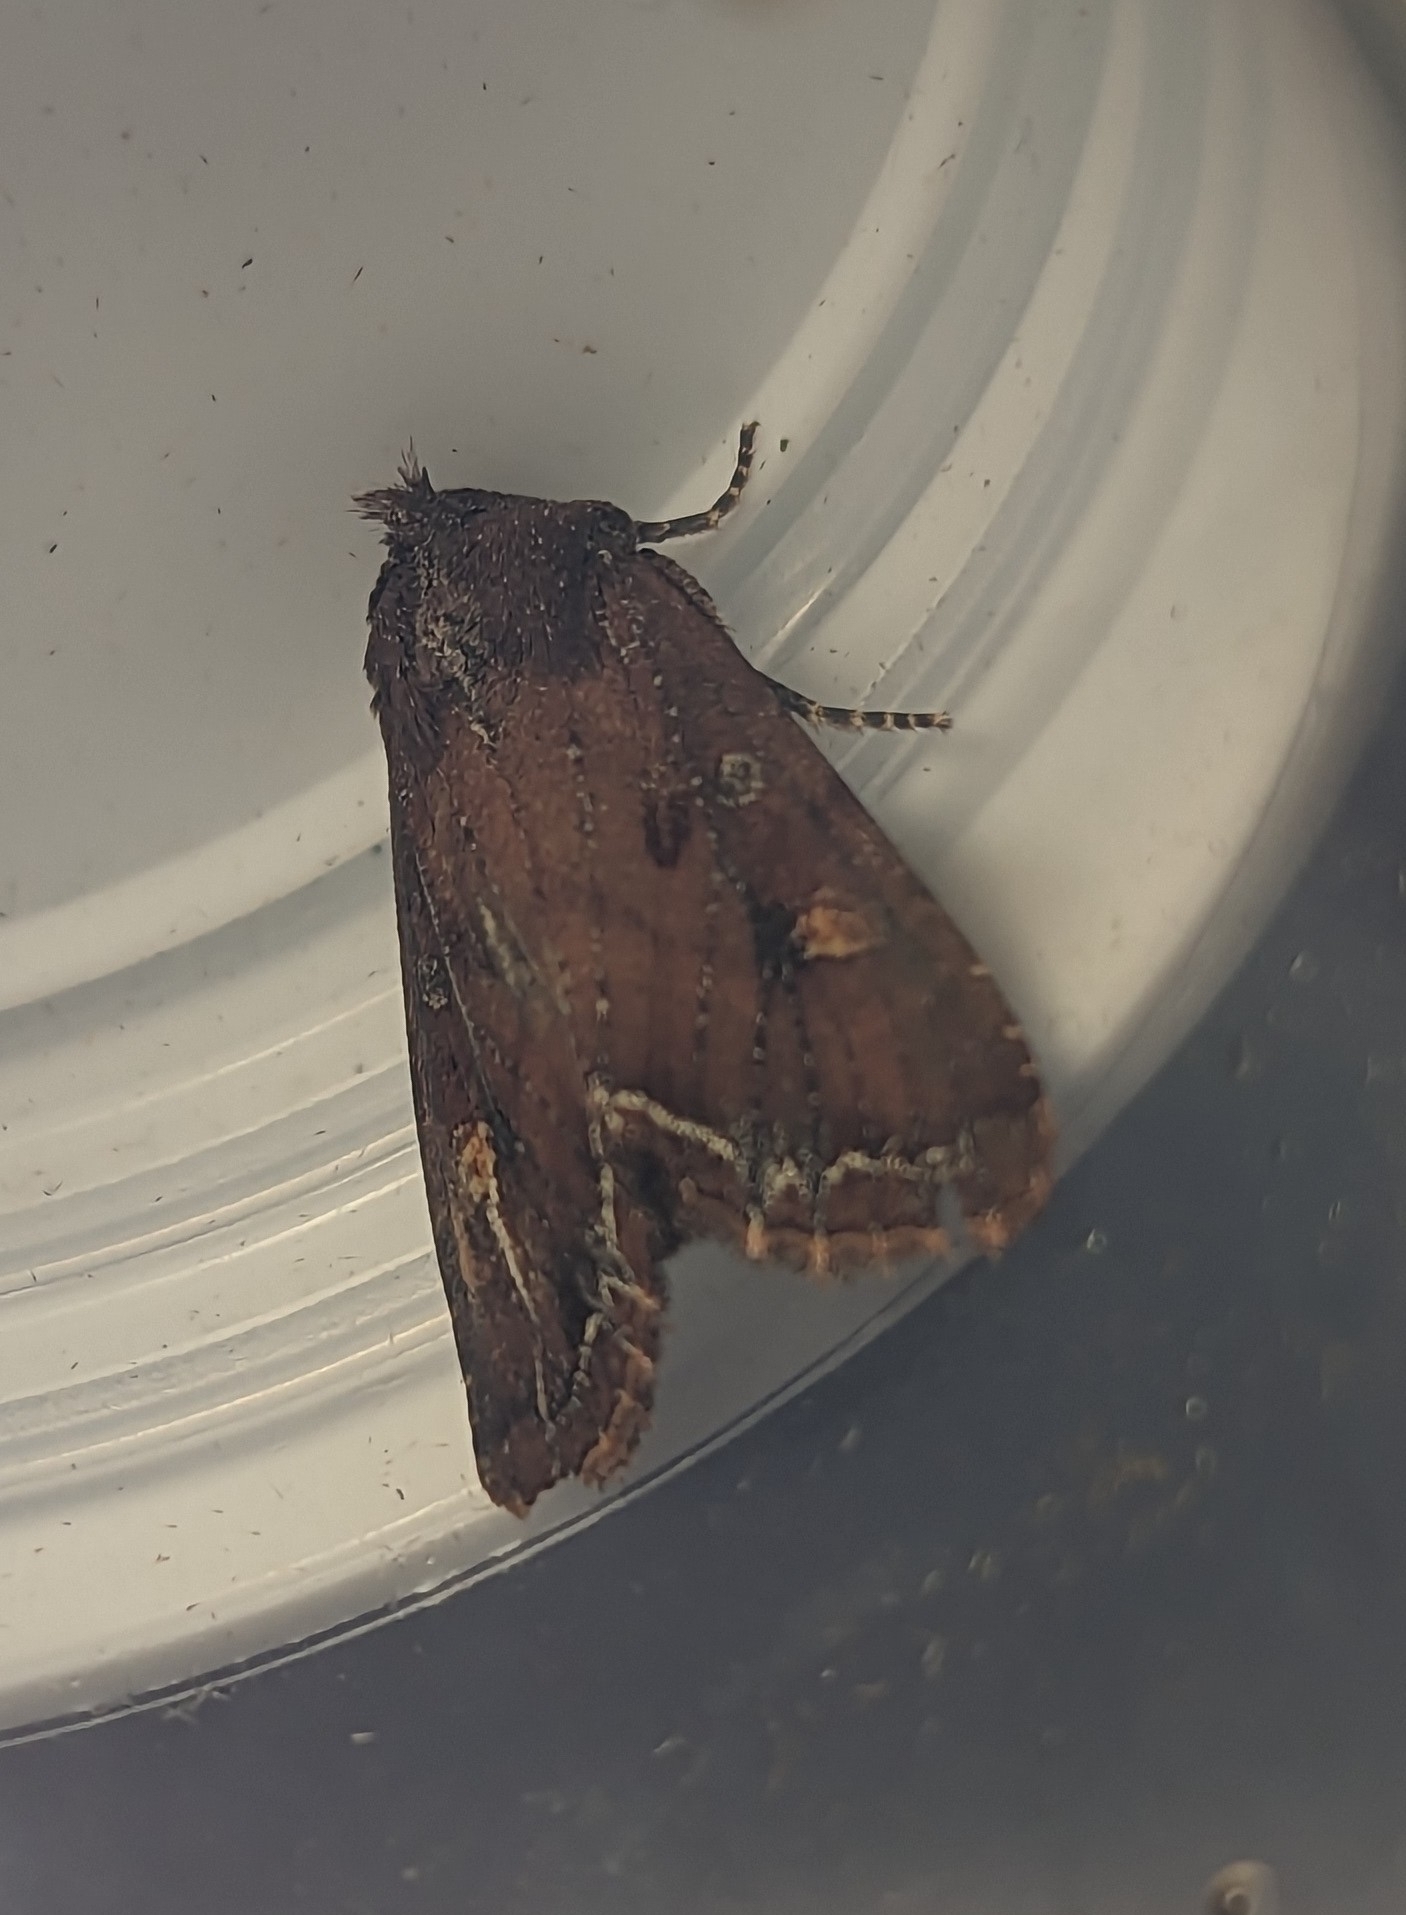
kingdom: Animalia
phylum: Arthropoda
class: Insecta
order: Lepidoptera
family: Noctuidae
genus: Lacanobia
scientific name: Lacanobia oleracea
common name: Bright-line brown-eye
